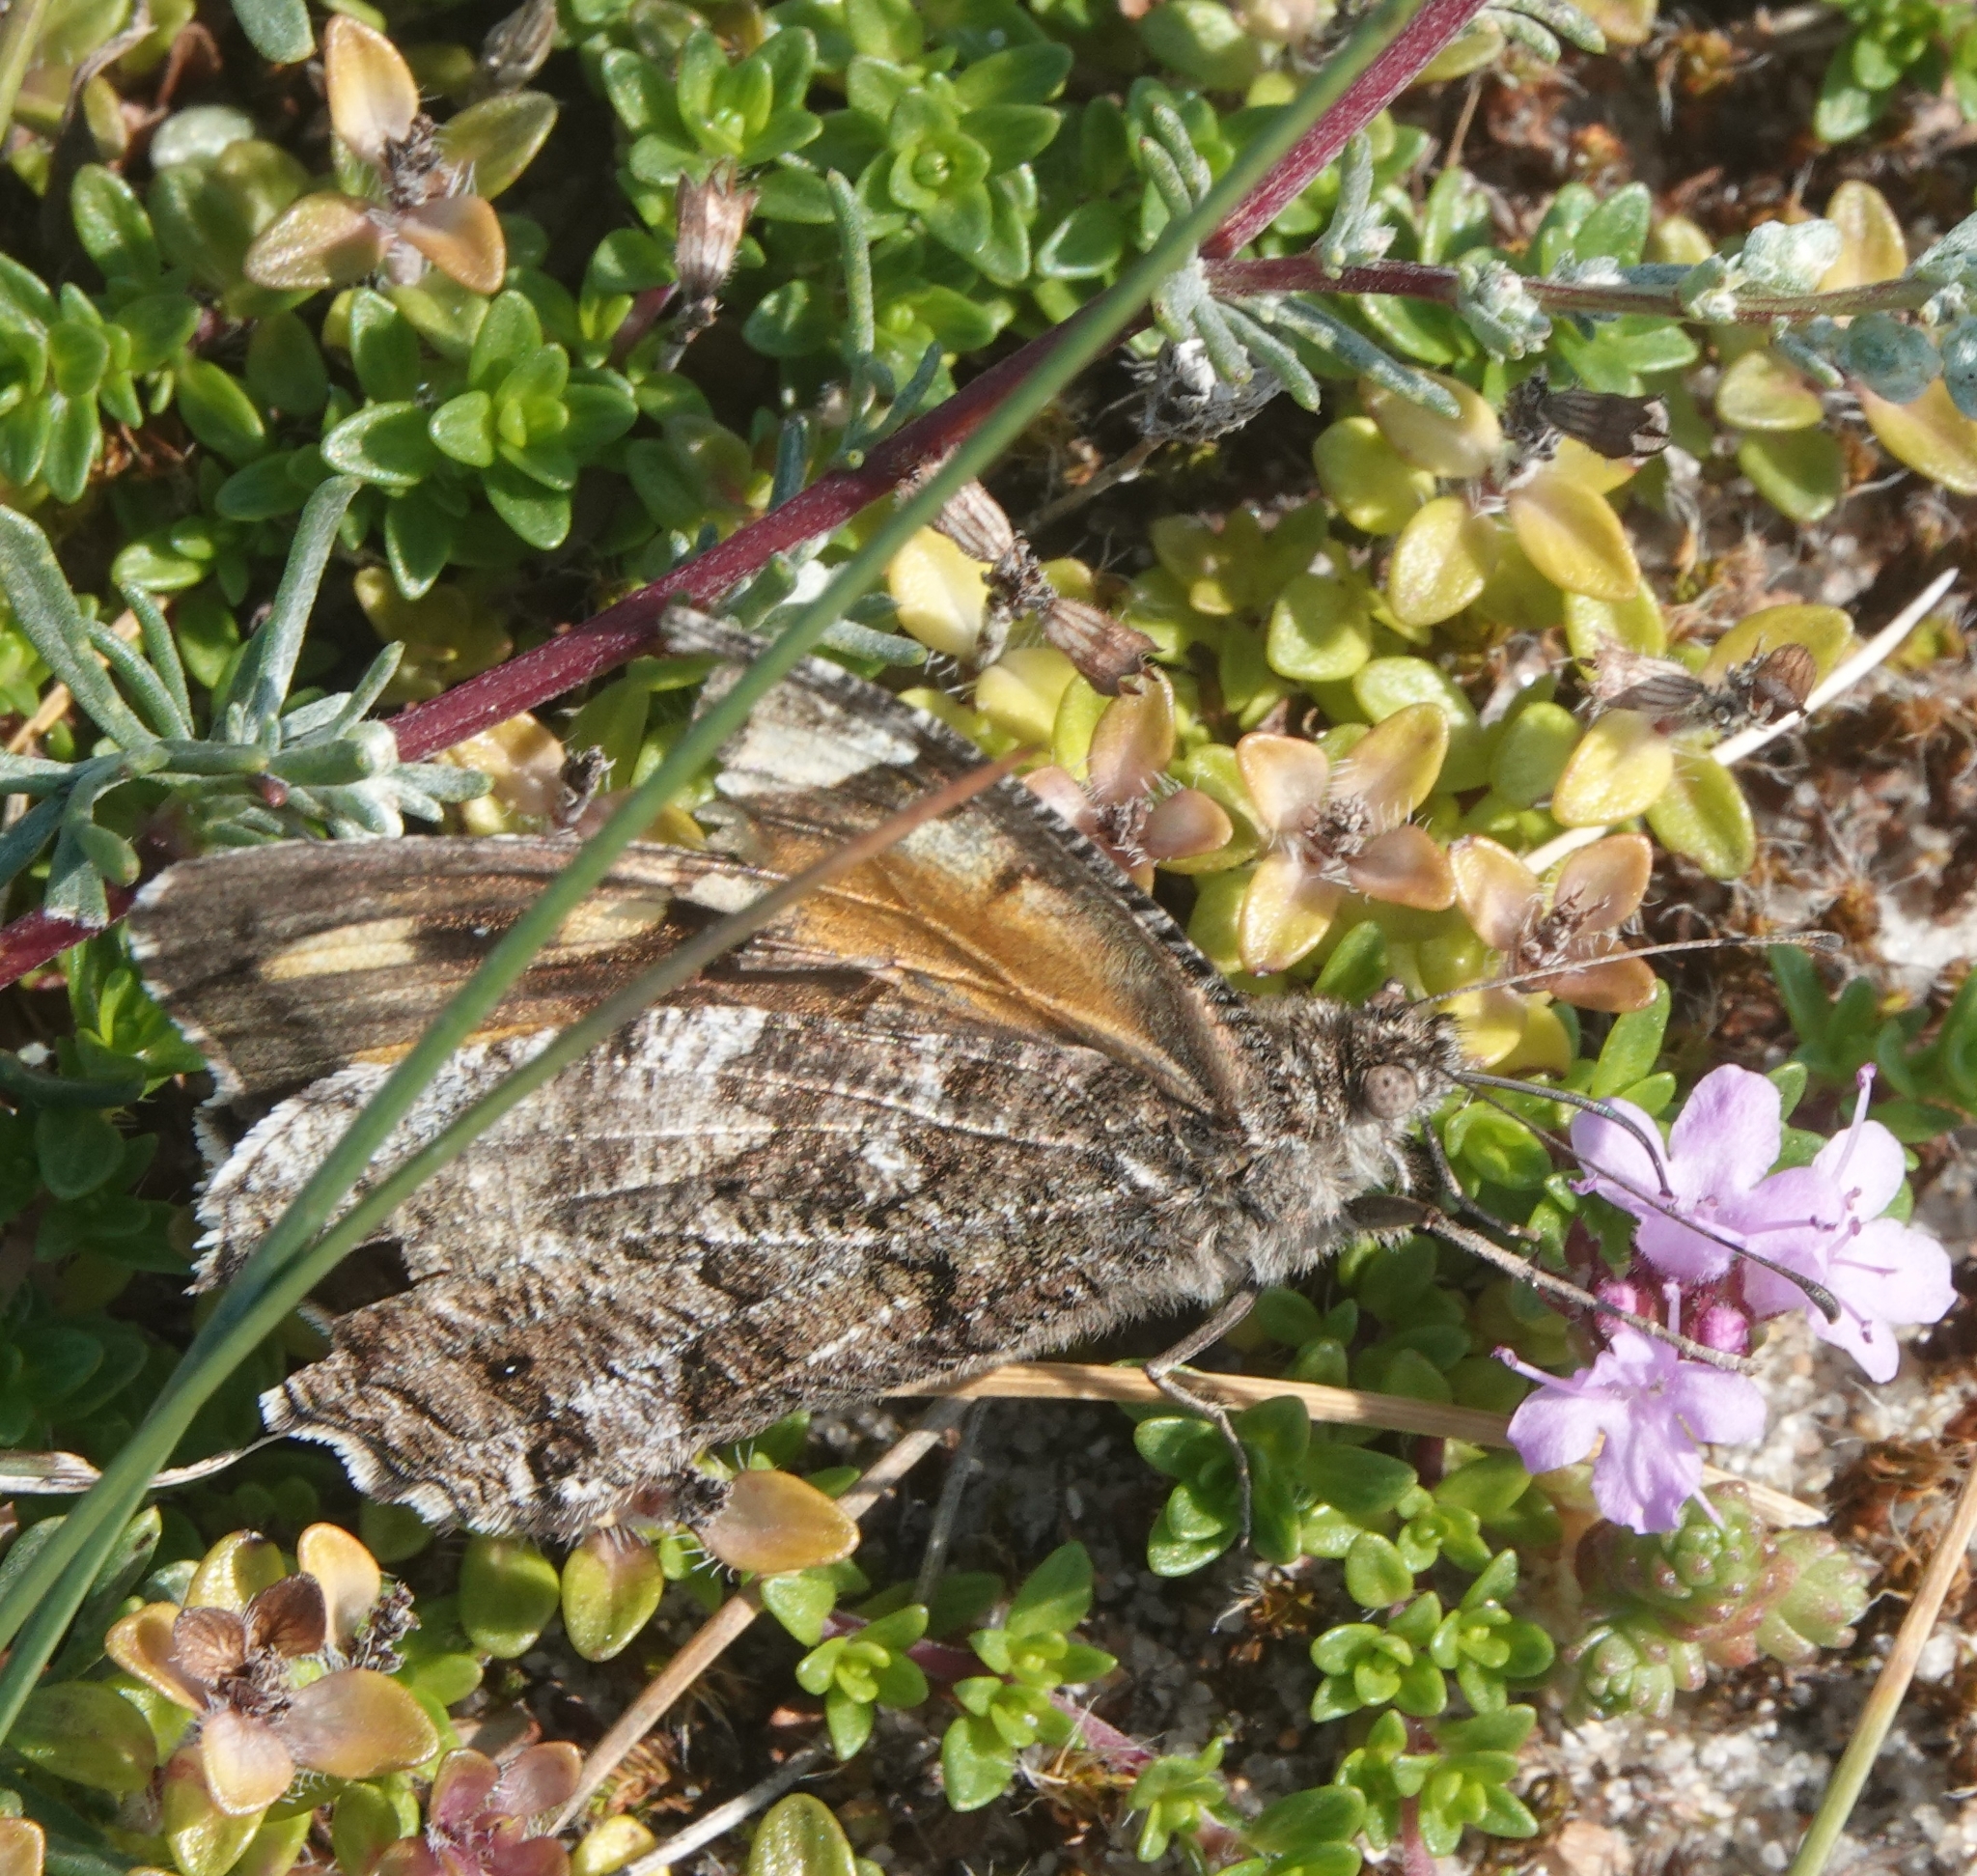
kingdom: Animalia
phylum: Arthropoda
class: Insecta
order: Lepidoptera
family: Nymphalidae
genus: Hipparchia
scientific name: Hipparchia semele
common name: Grayling
